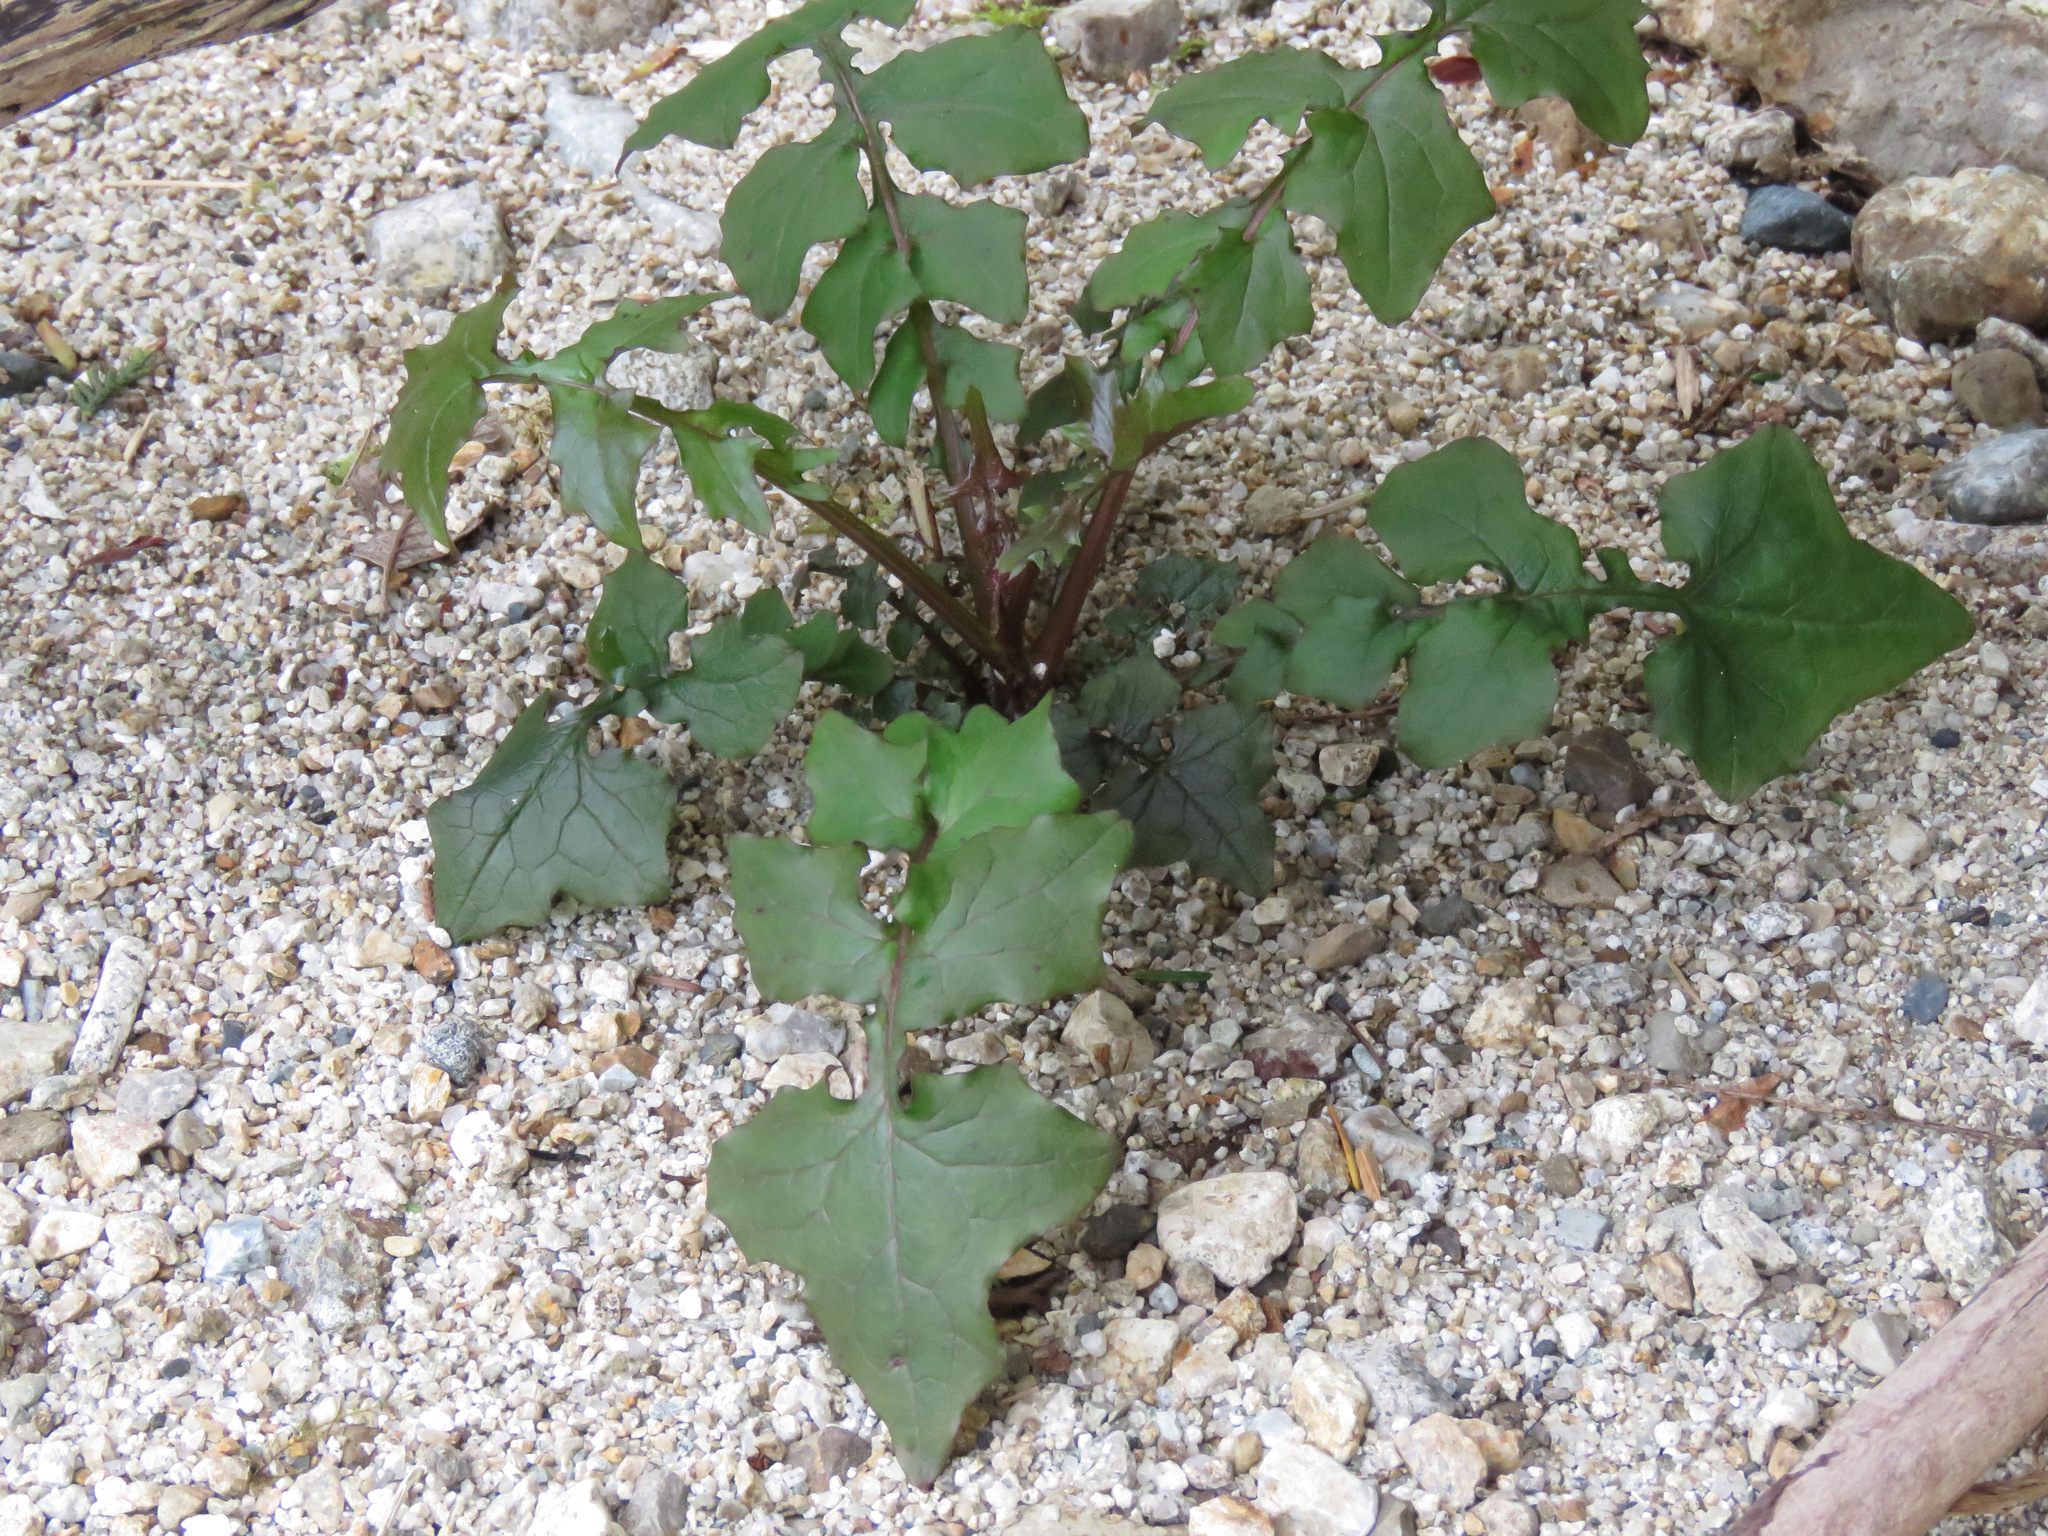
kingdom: Plantae
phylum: Tracheophyta
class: Magnoliopsida
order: Asterales
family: Asteraceae
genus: Mycelis
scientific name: Mycelis muralis
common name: Wall lettuce
